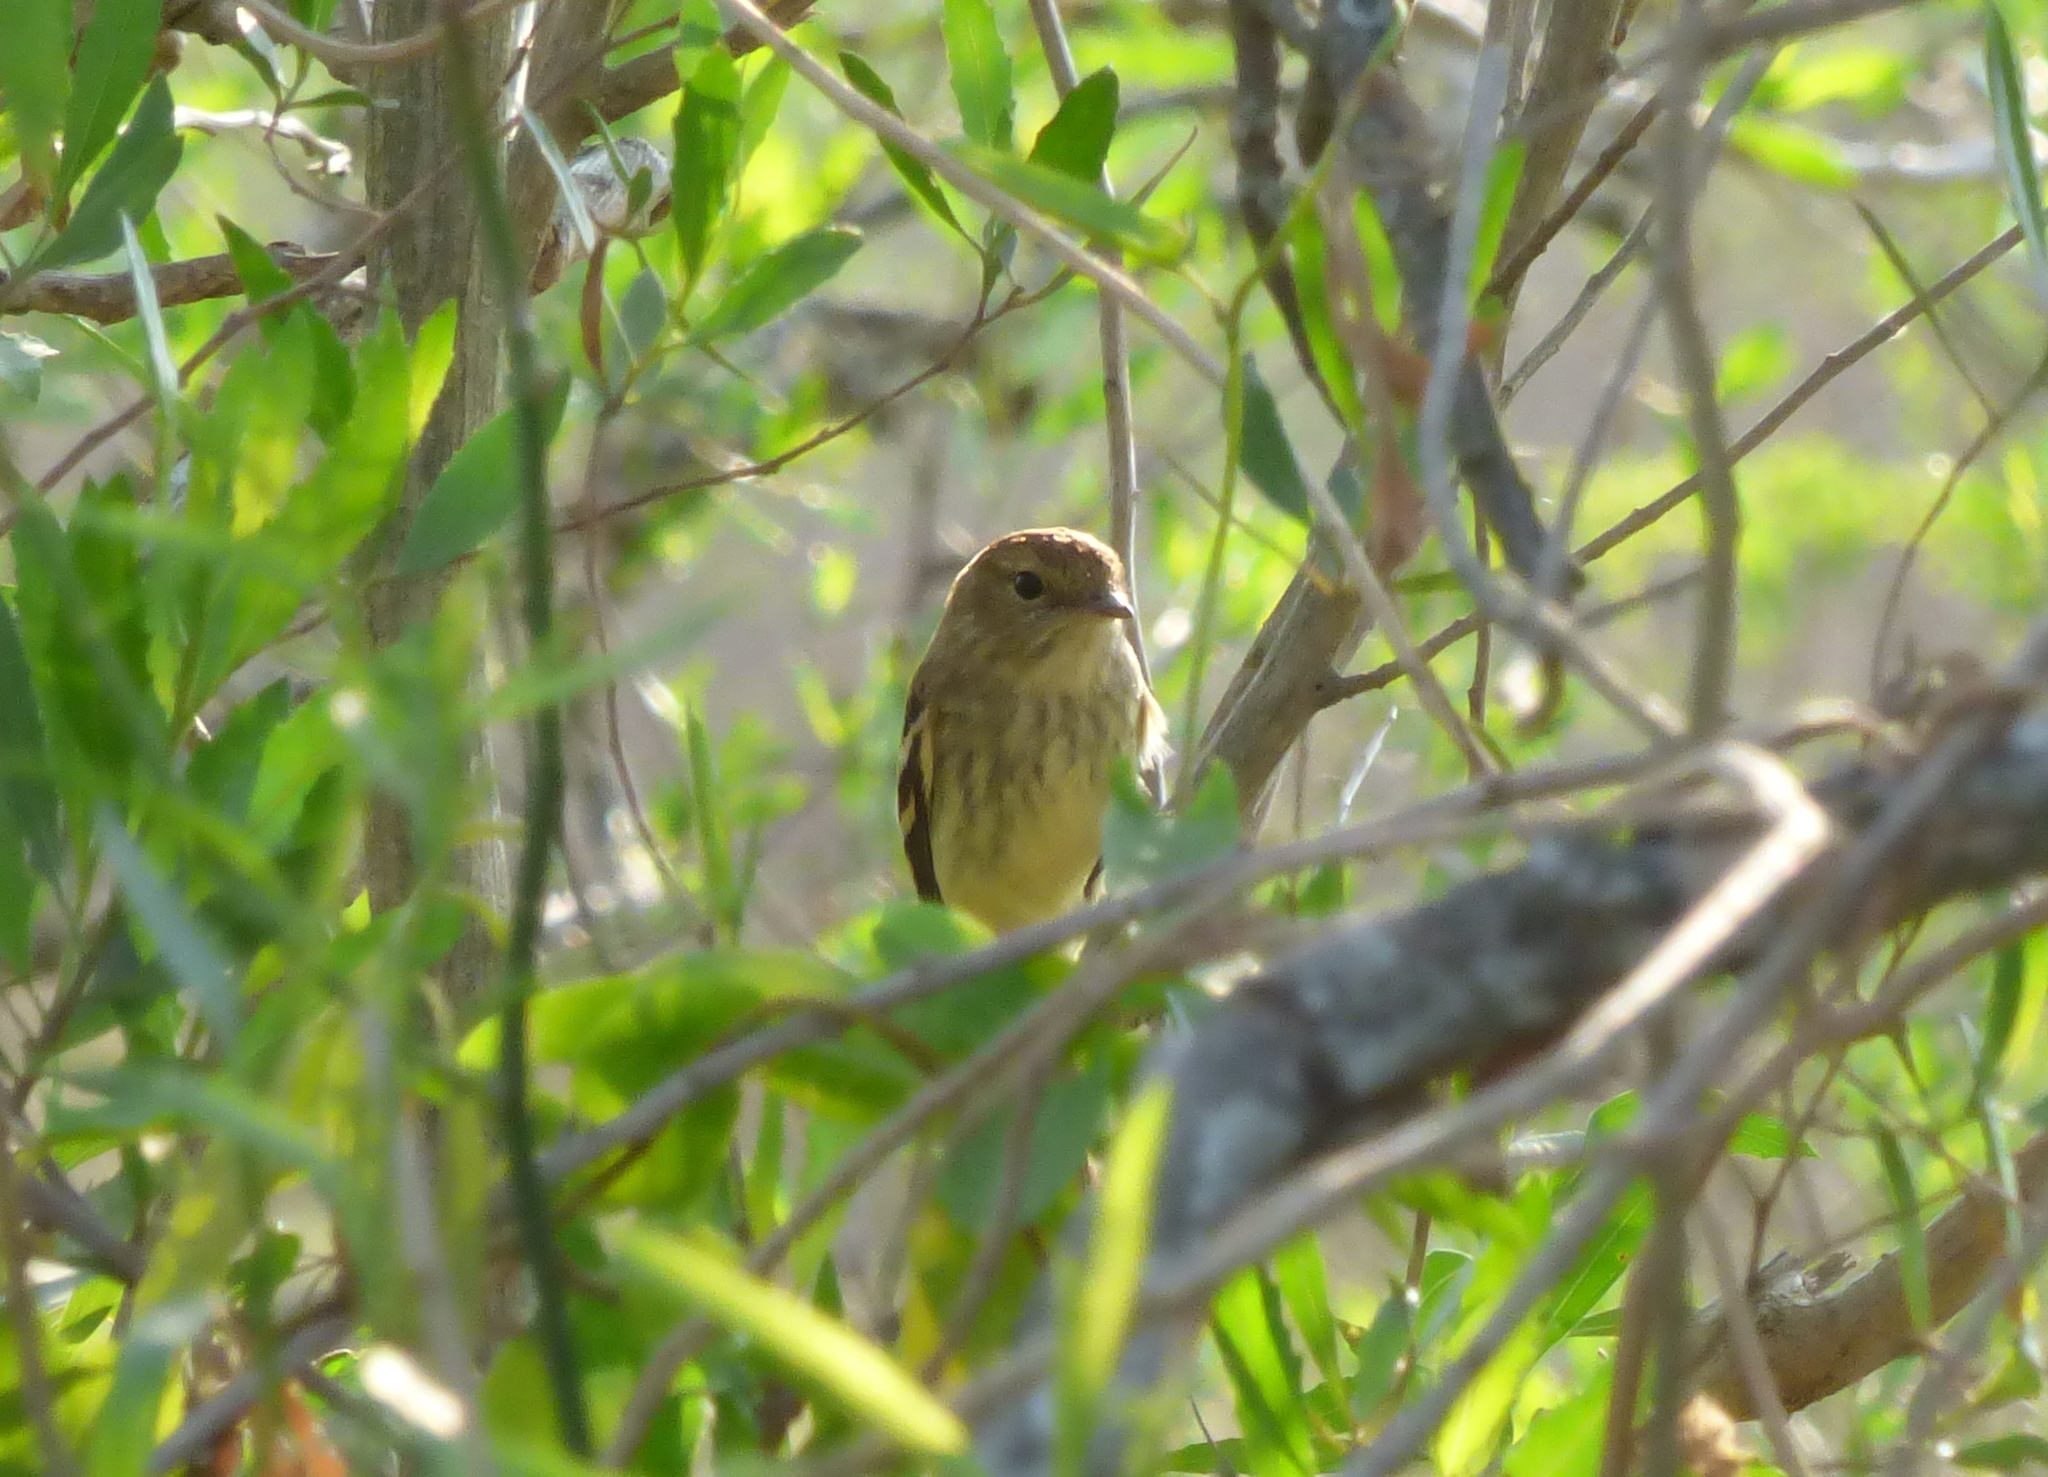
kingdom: Animalia
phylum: Chordata
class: Aves
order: Passeriformes
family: Tyrannidae
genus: Myiophobus
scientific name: Myiophobus fasciatus
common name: Bran-colored flycatcher
